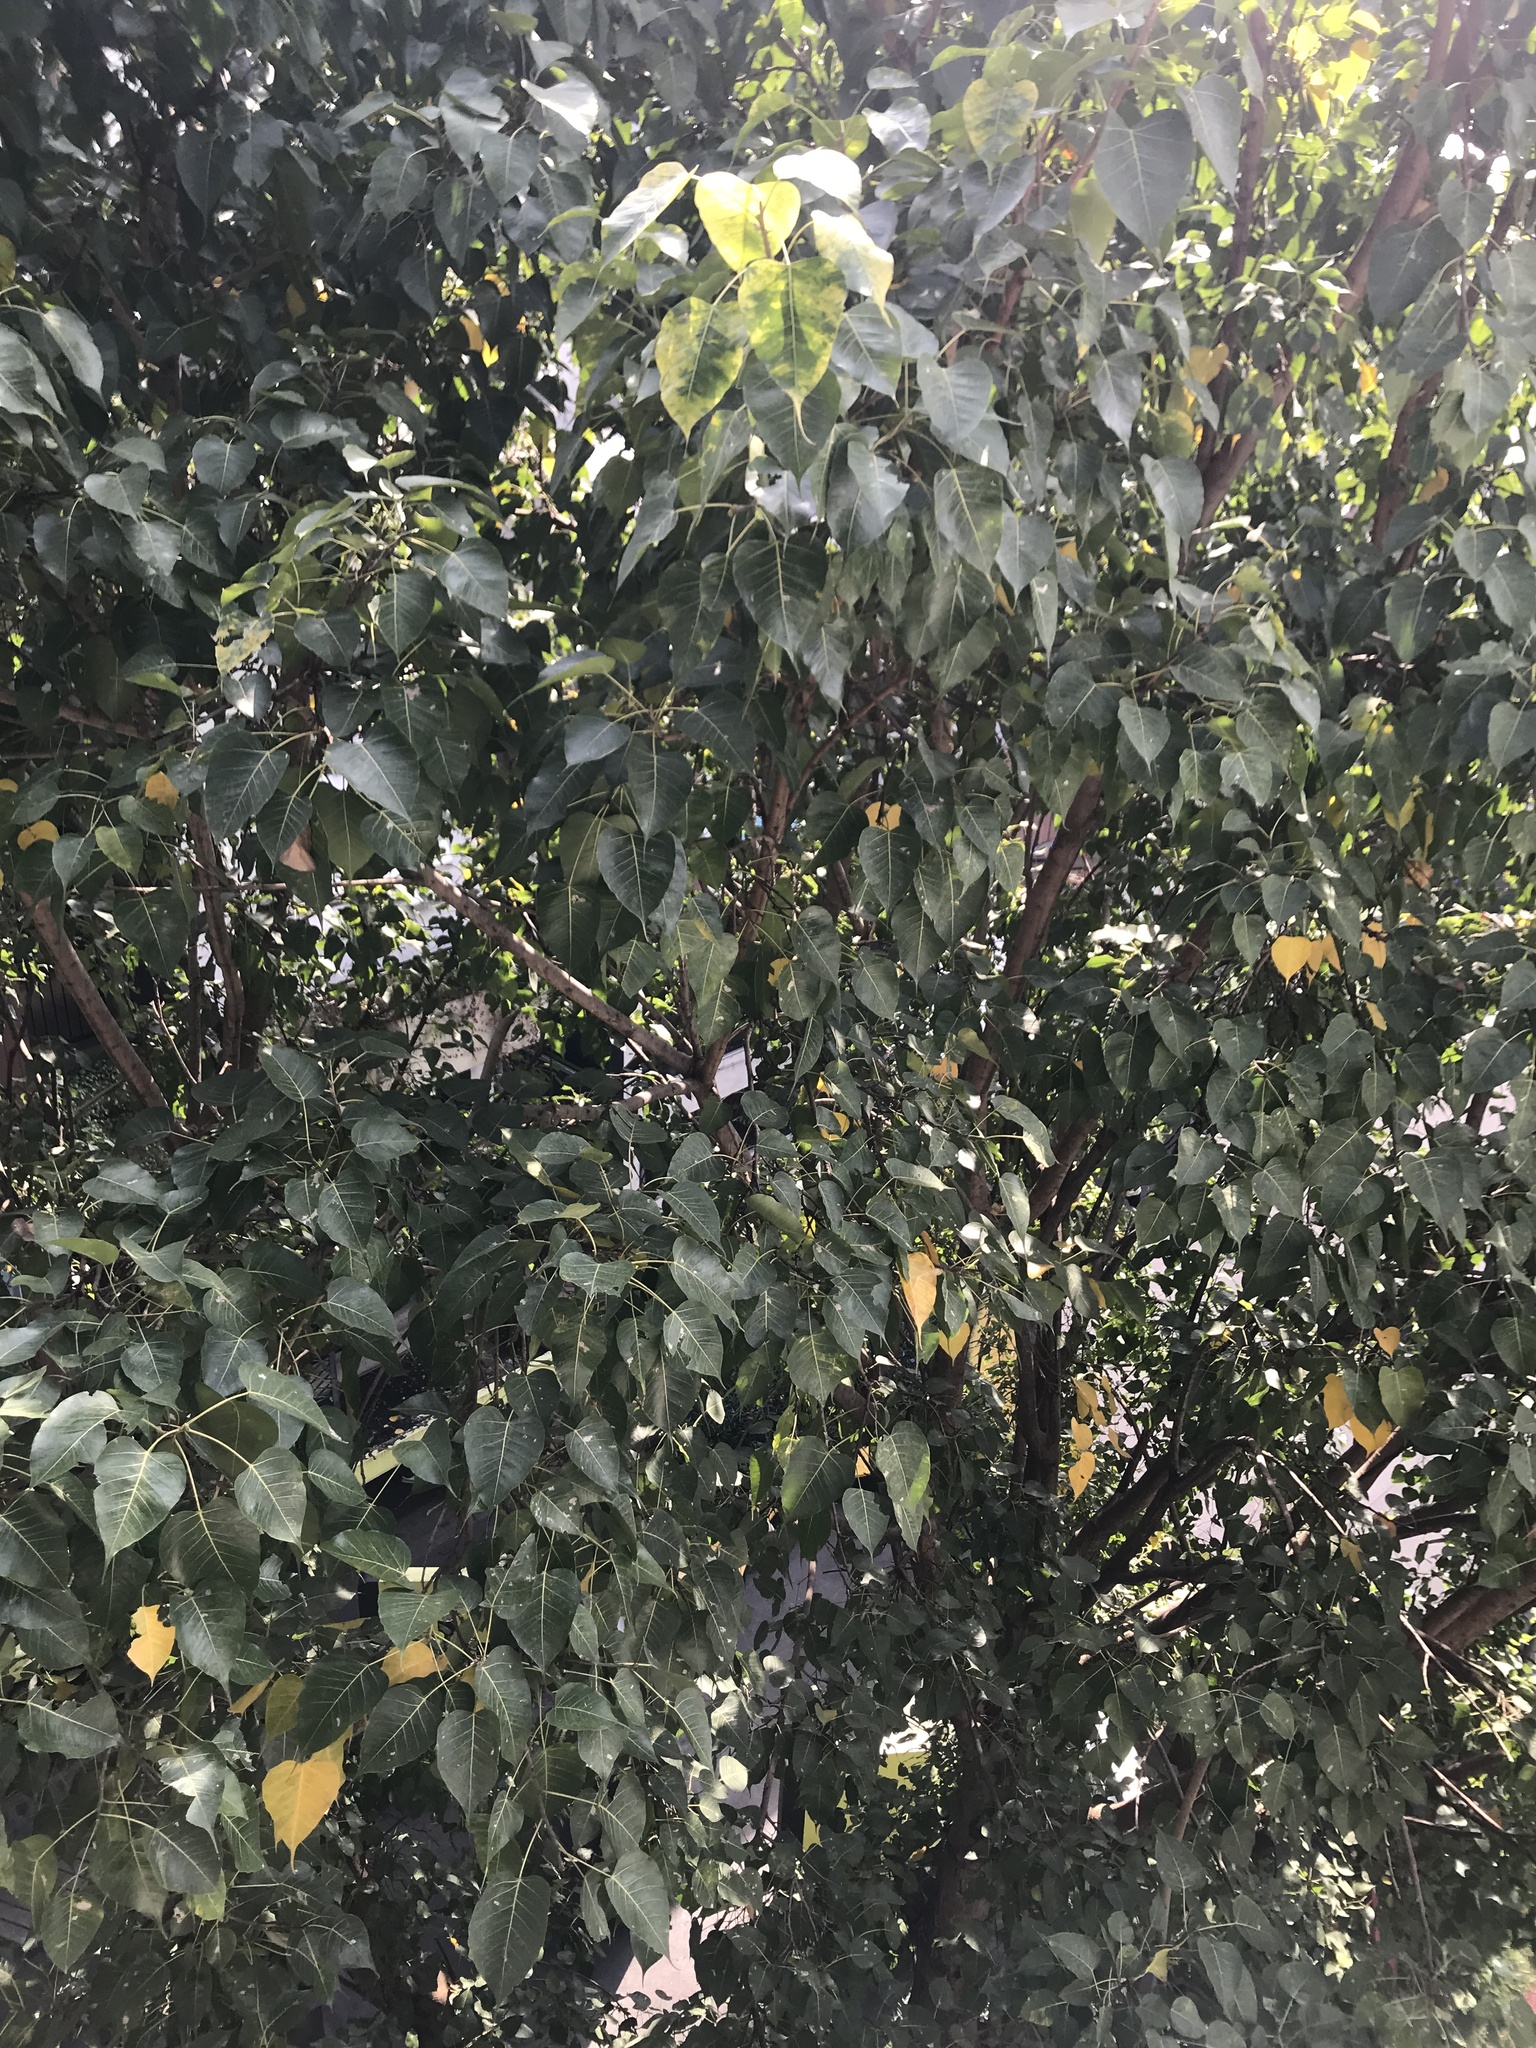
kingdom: Plantae
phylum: Tracheophyta
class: Magnoliopsida
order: Rosales
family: Moraceae
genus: Ficus
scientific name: Ficus religiosa
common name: Bodhi tree
